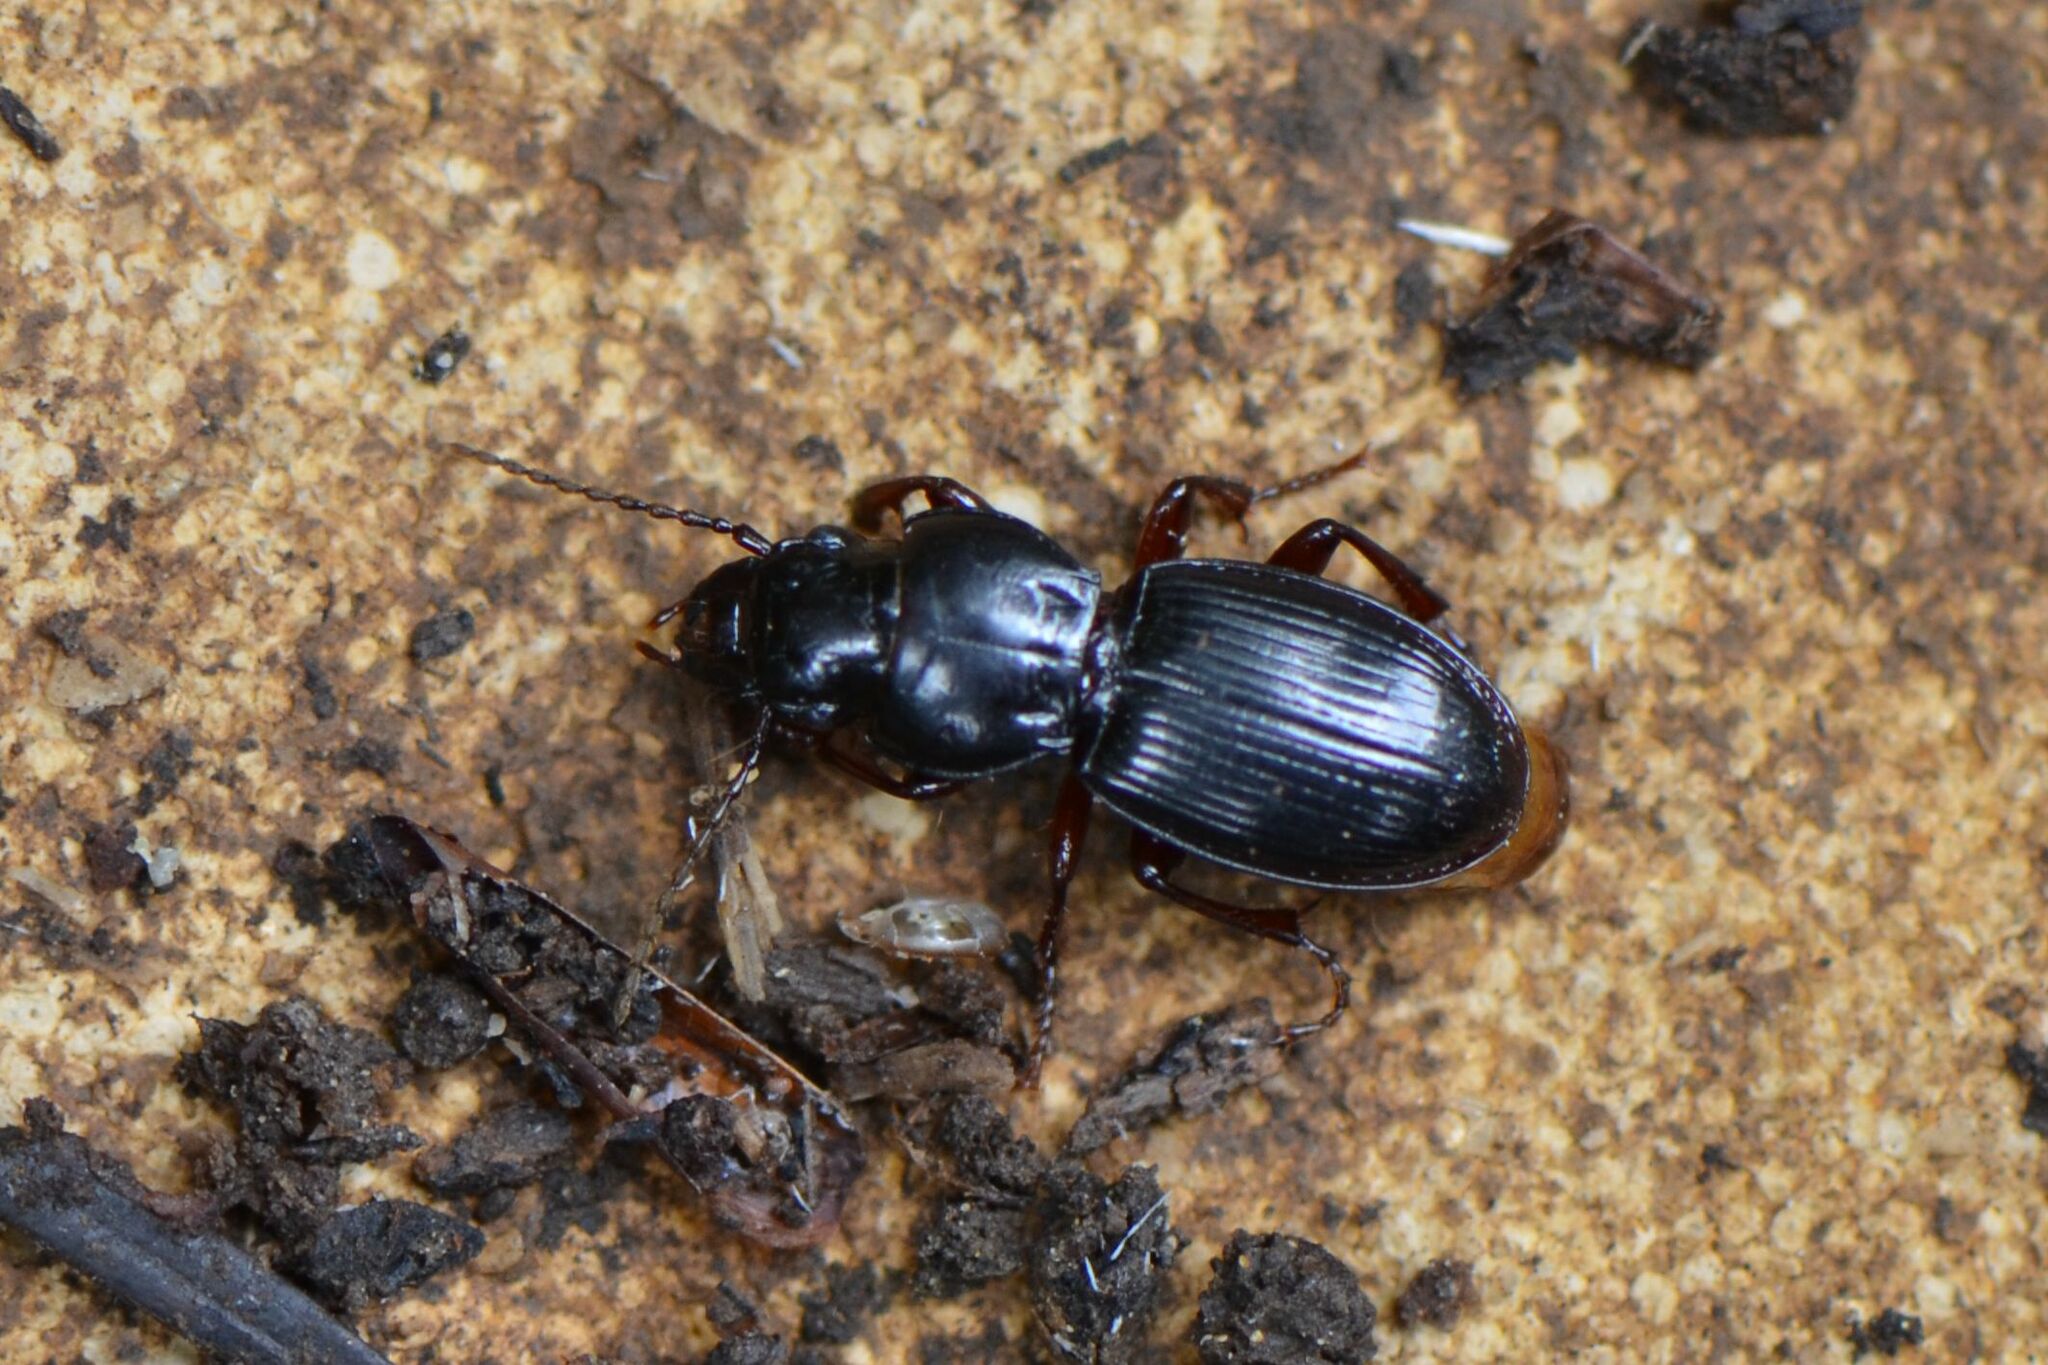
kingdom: Animalia
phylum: Arthropoda
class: Insecta
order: Coleoptera
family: Carabidae
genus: Molops
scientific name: Molops piceus
